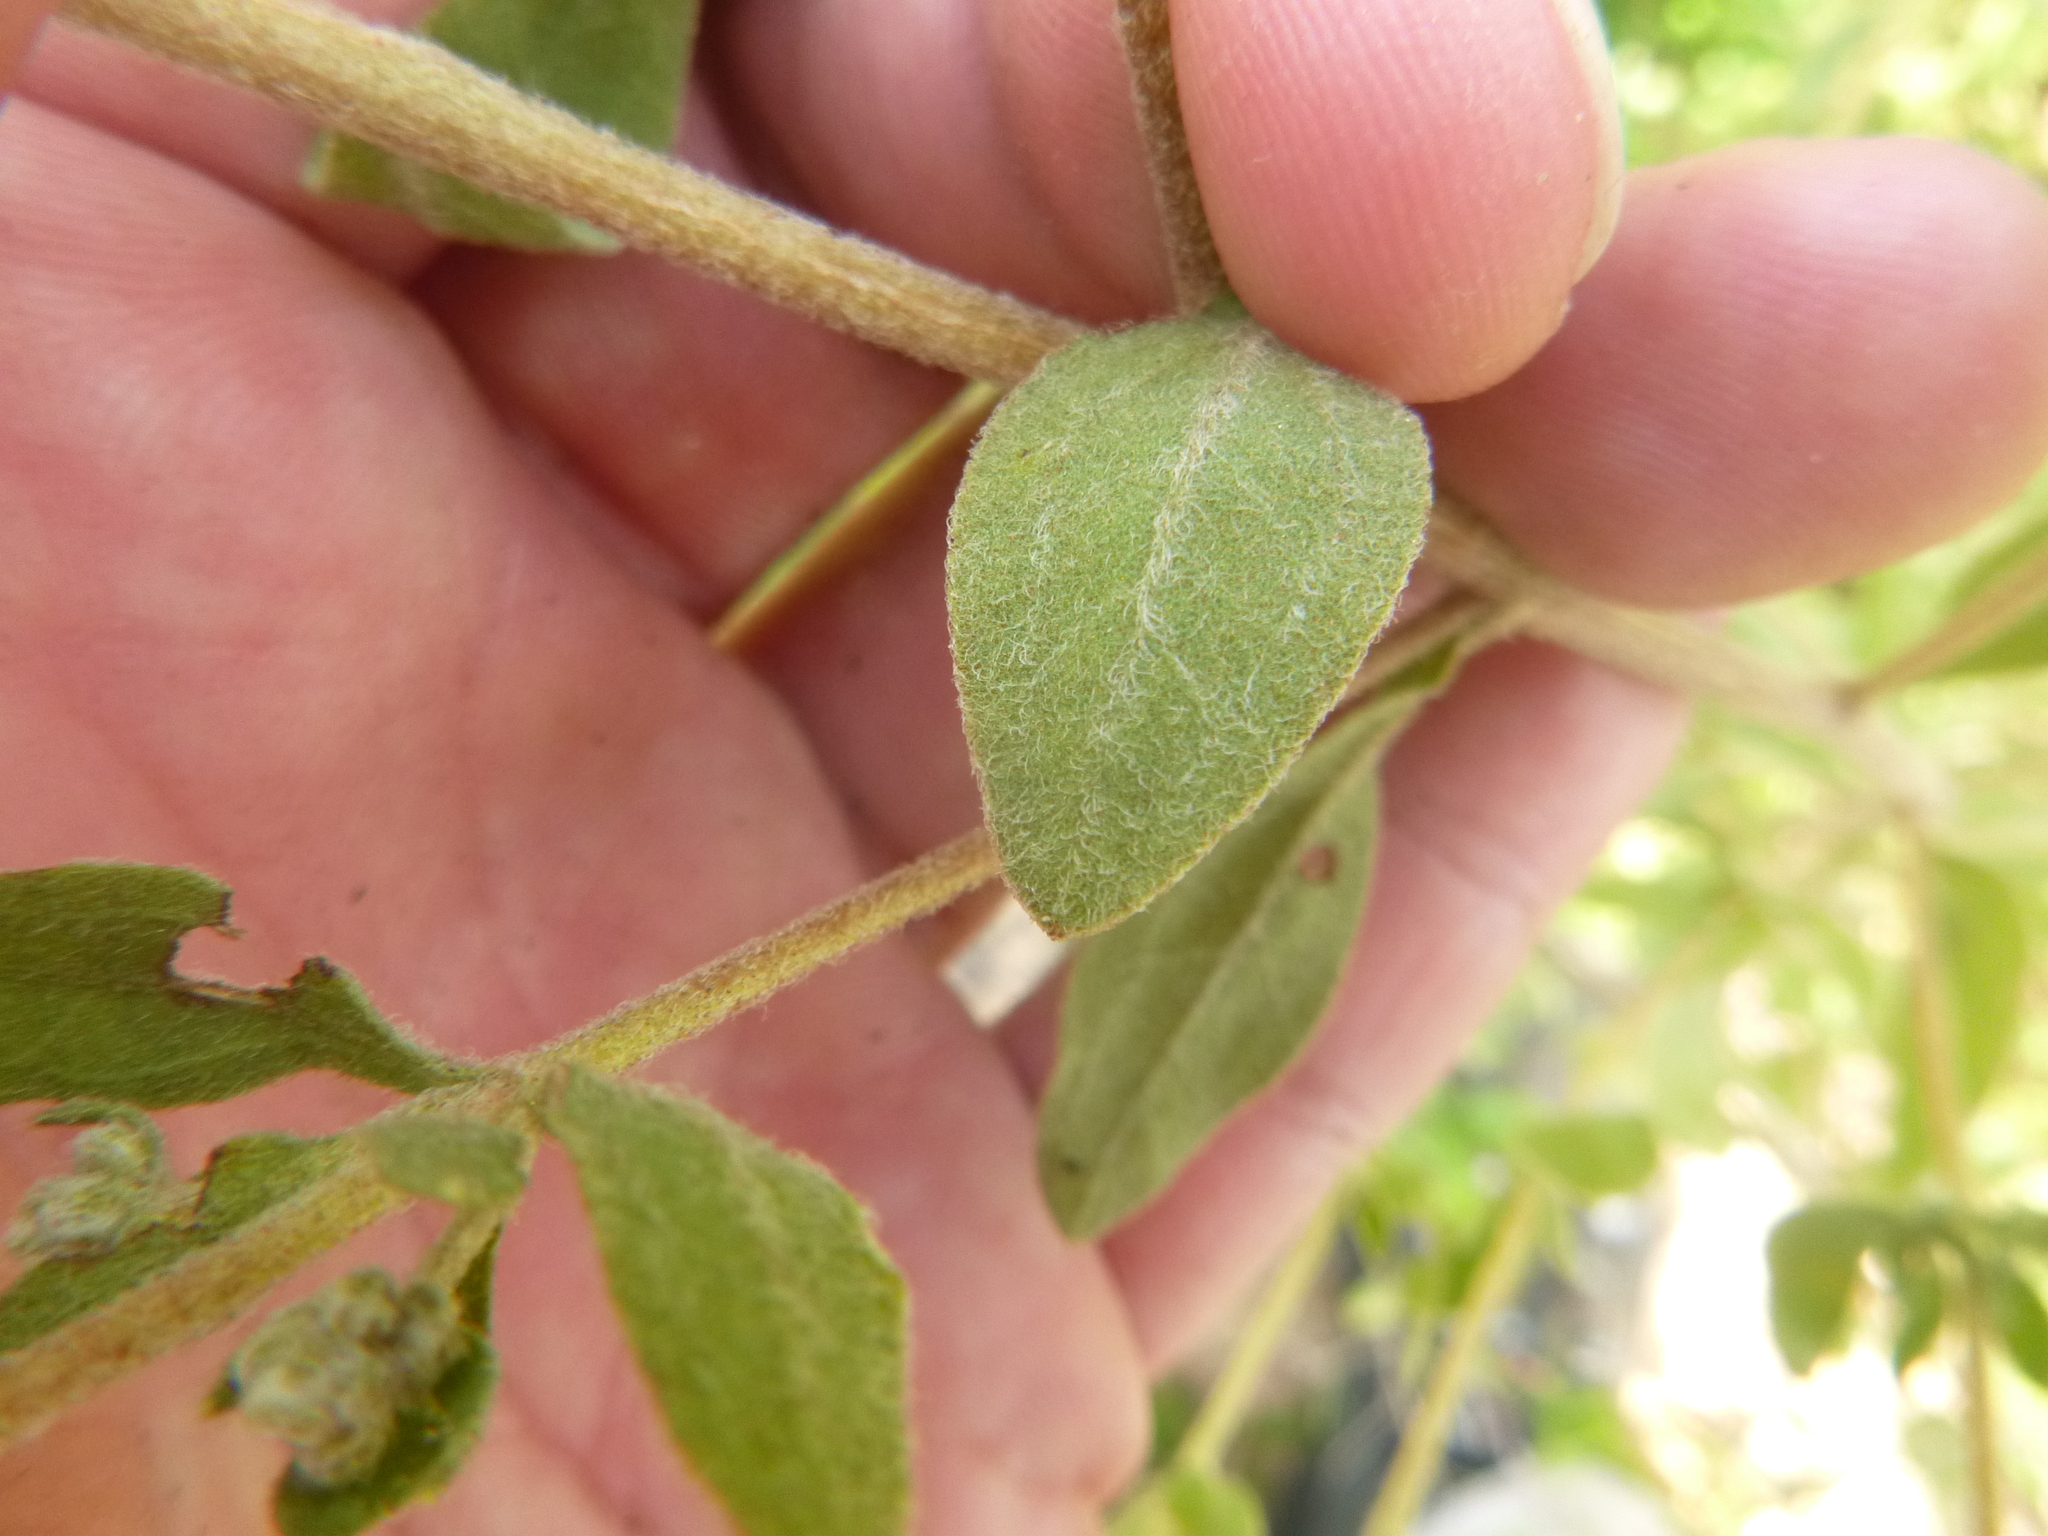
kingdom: Plantae
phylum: Tracheophyta
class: Magnoliopsida
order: Asterales
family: Asteraceae
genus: Eupatorium
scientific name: Eupatorium linearifolium
